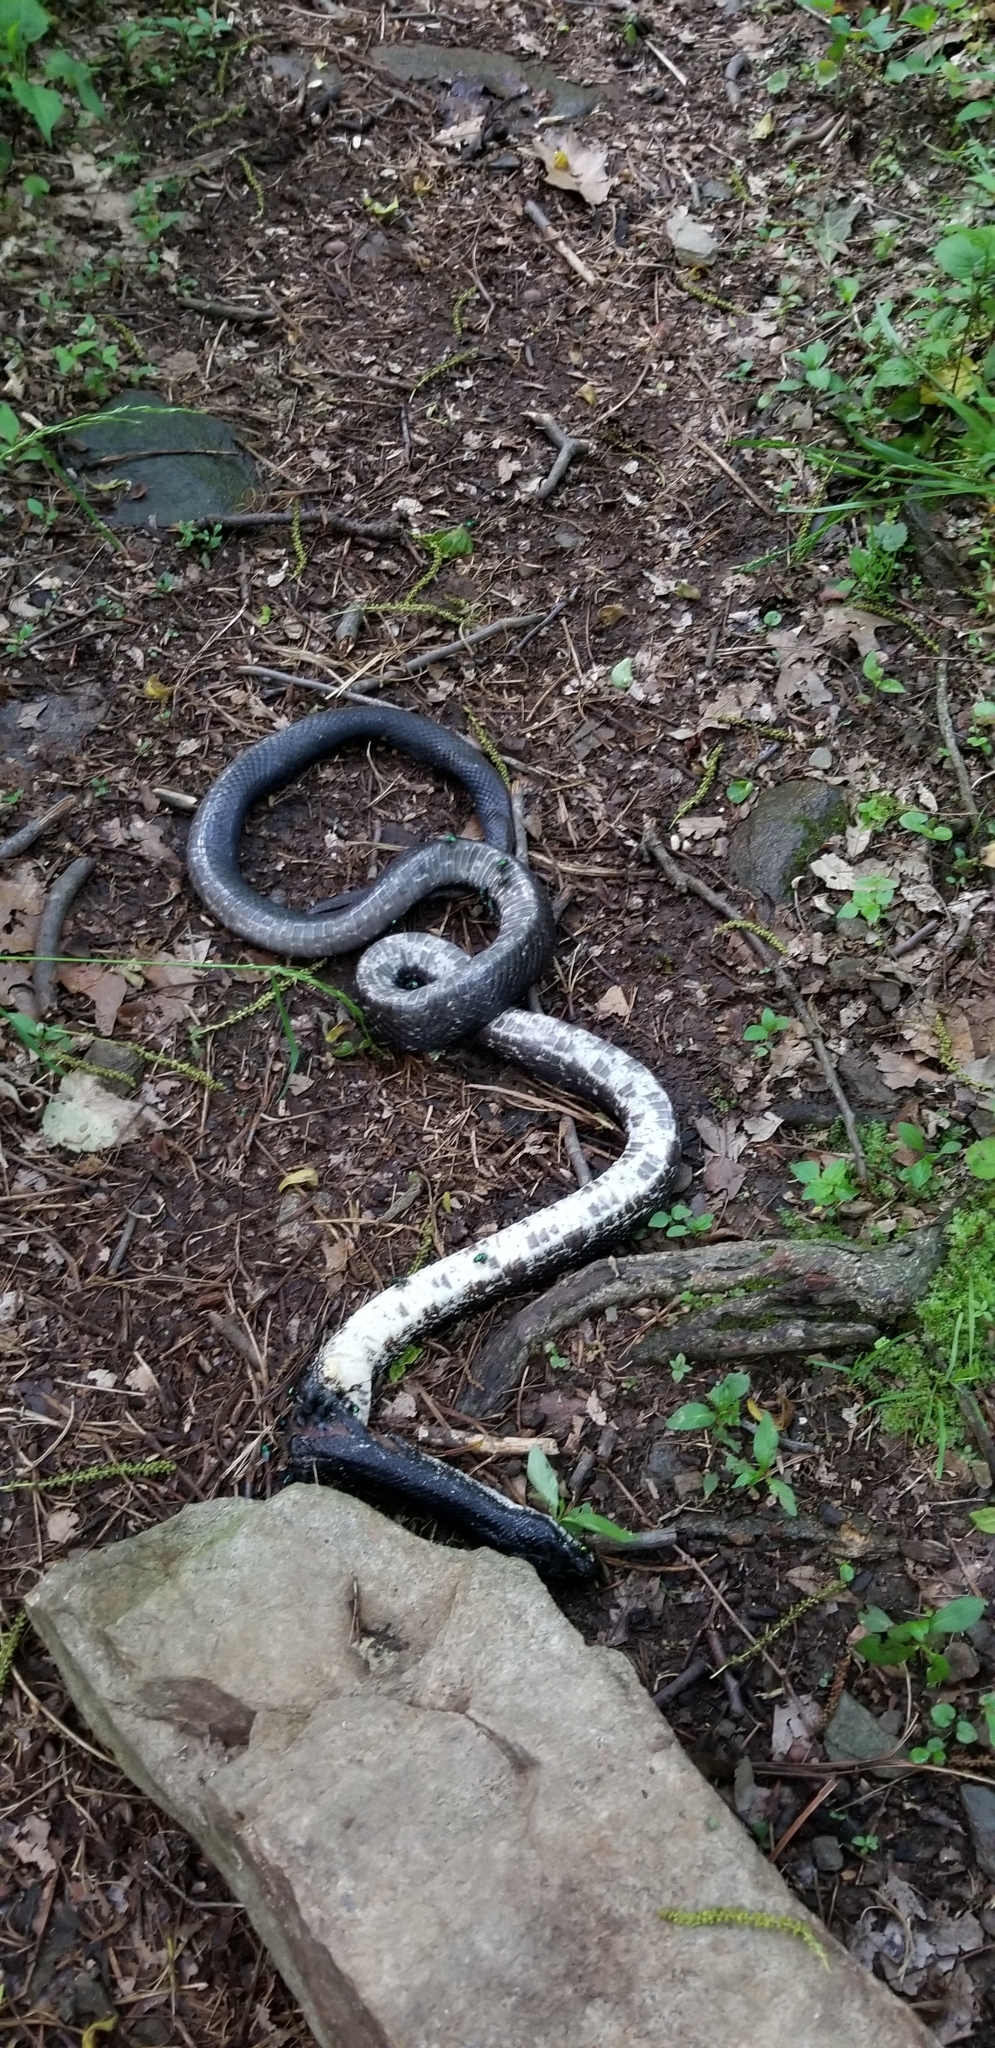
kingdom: Animalia
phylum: Chordata
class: Squamata
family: Colubridae
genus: Pantherophis
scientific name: Pantherophis alleghaniensis
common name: Eastern rat snake
